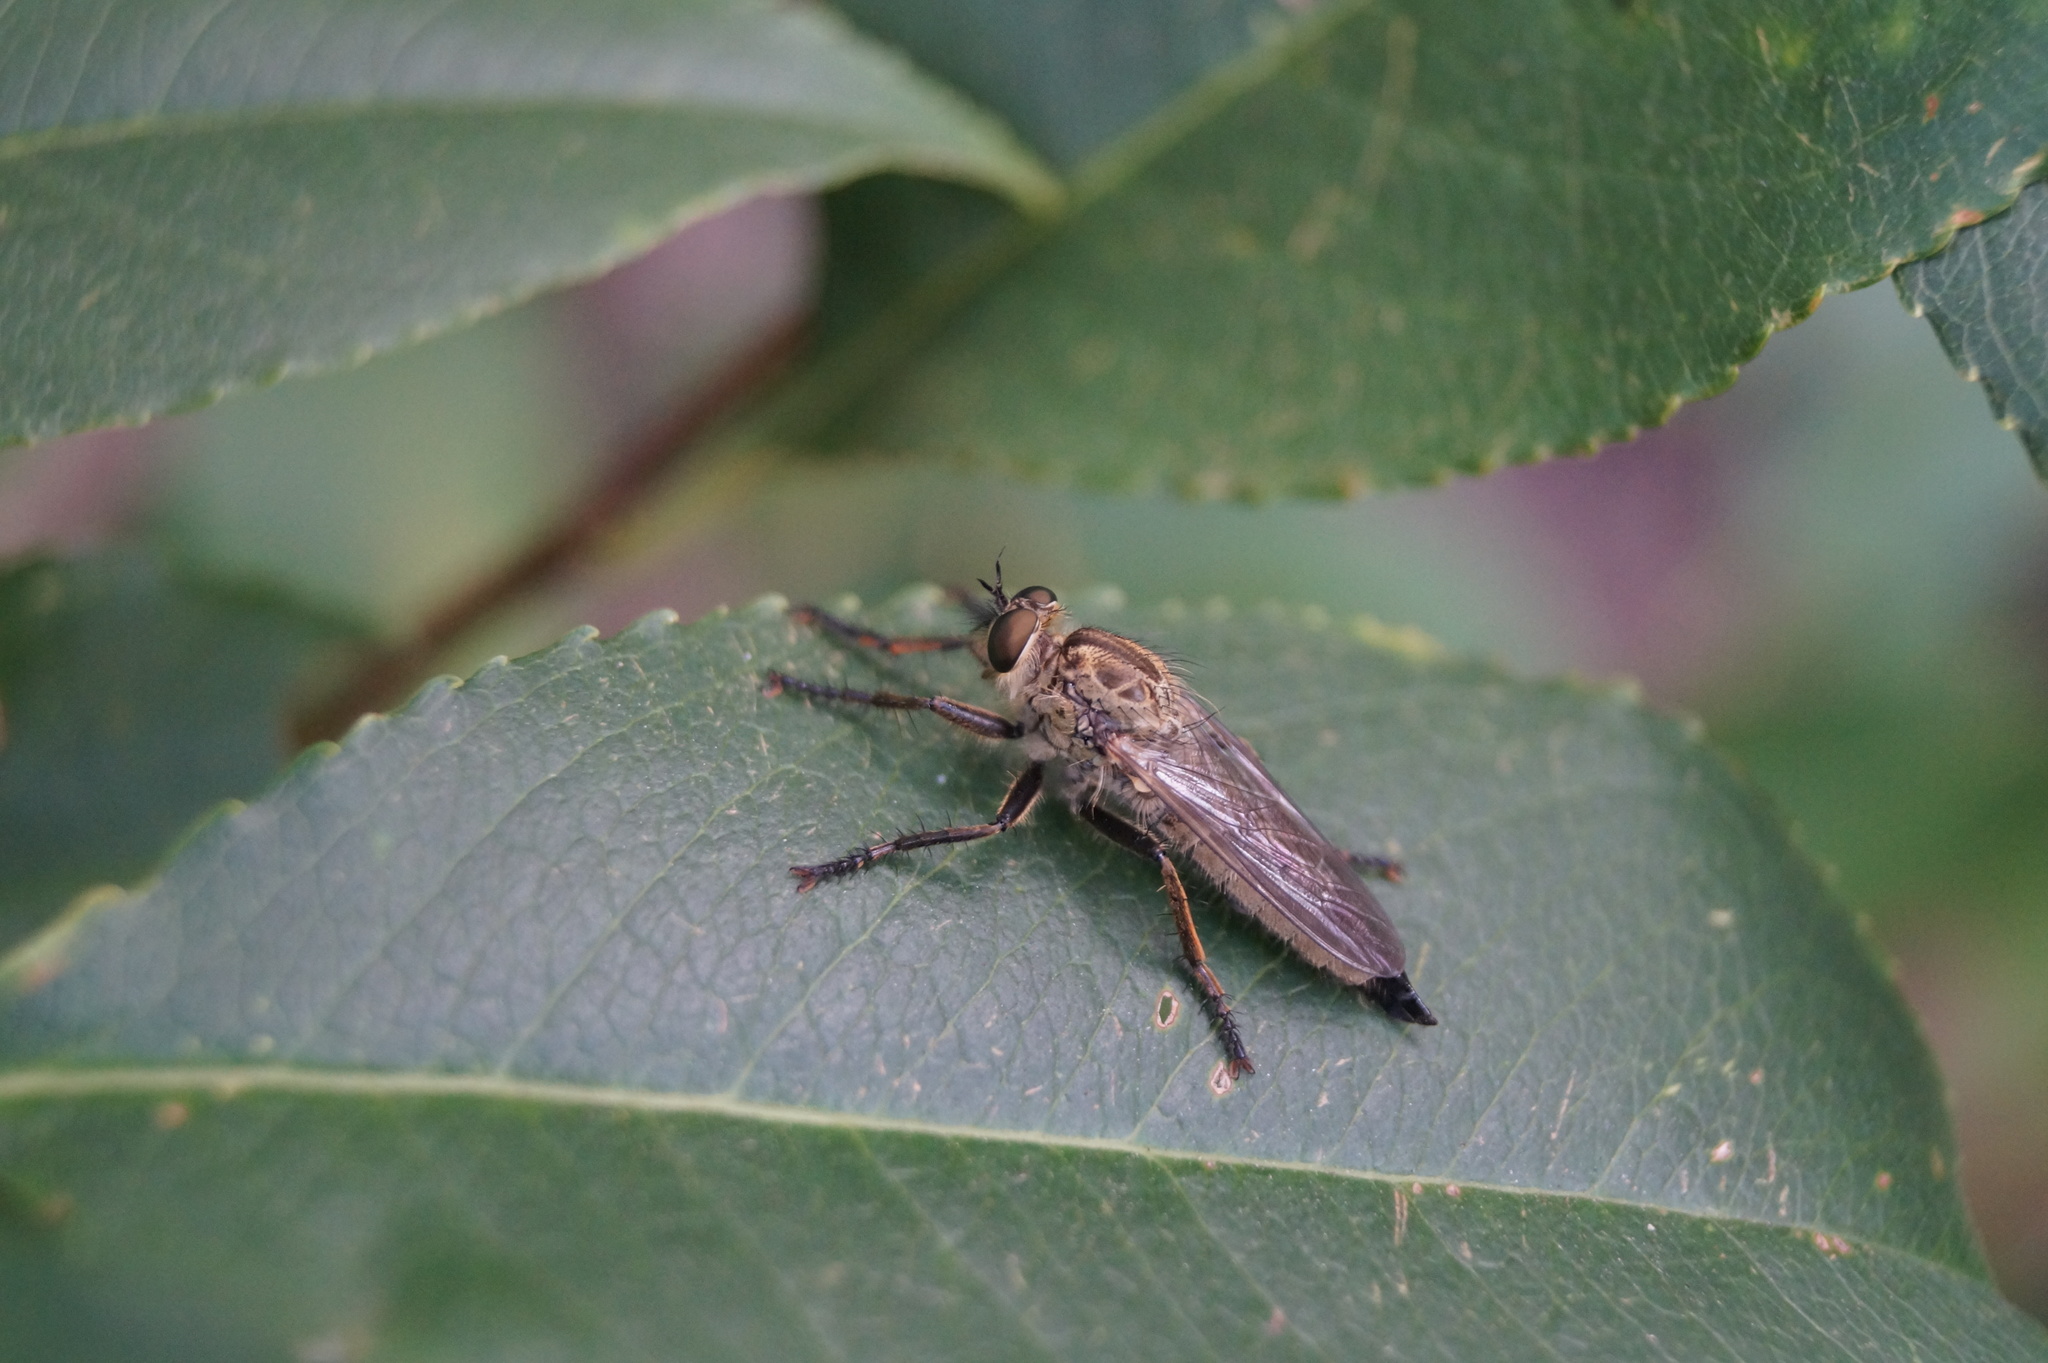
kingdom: Animalia
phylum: Arthropoda
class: Insecta
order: Diptera
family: Asilidae
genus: Eutolmus
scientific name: Eutolmus rufibarbis
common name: Golden-tabbed robberfly
